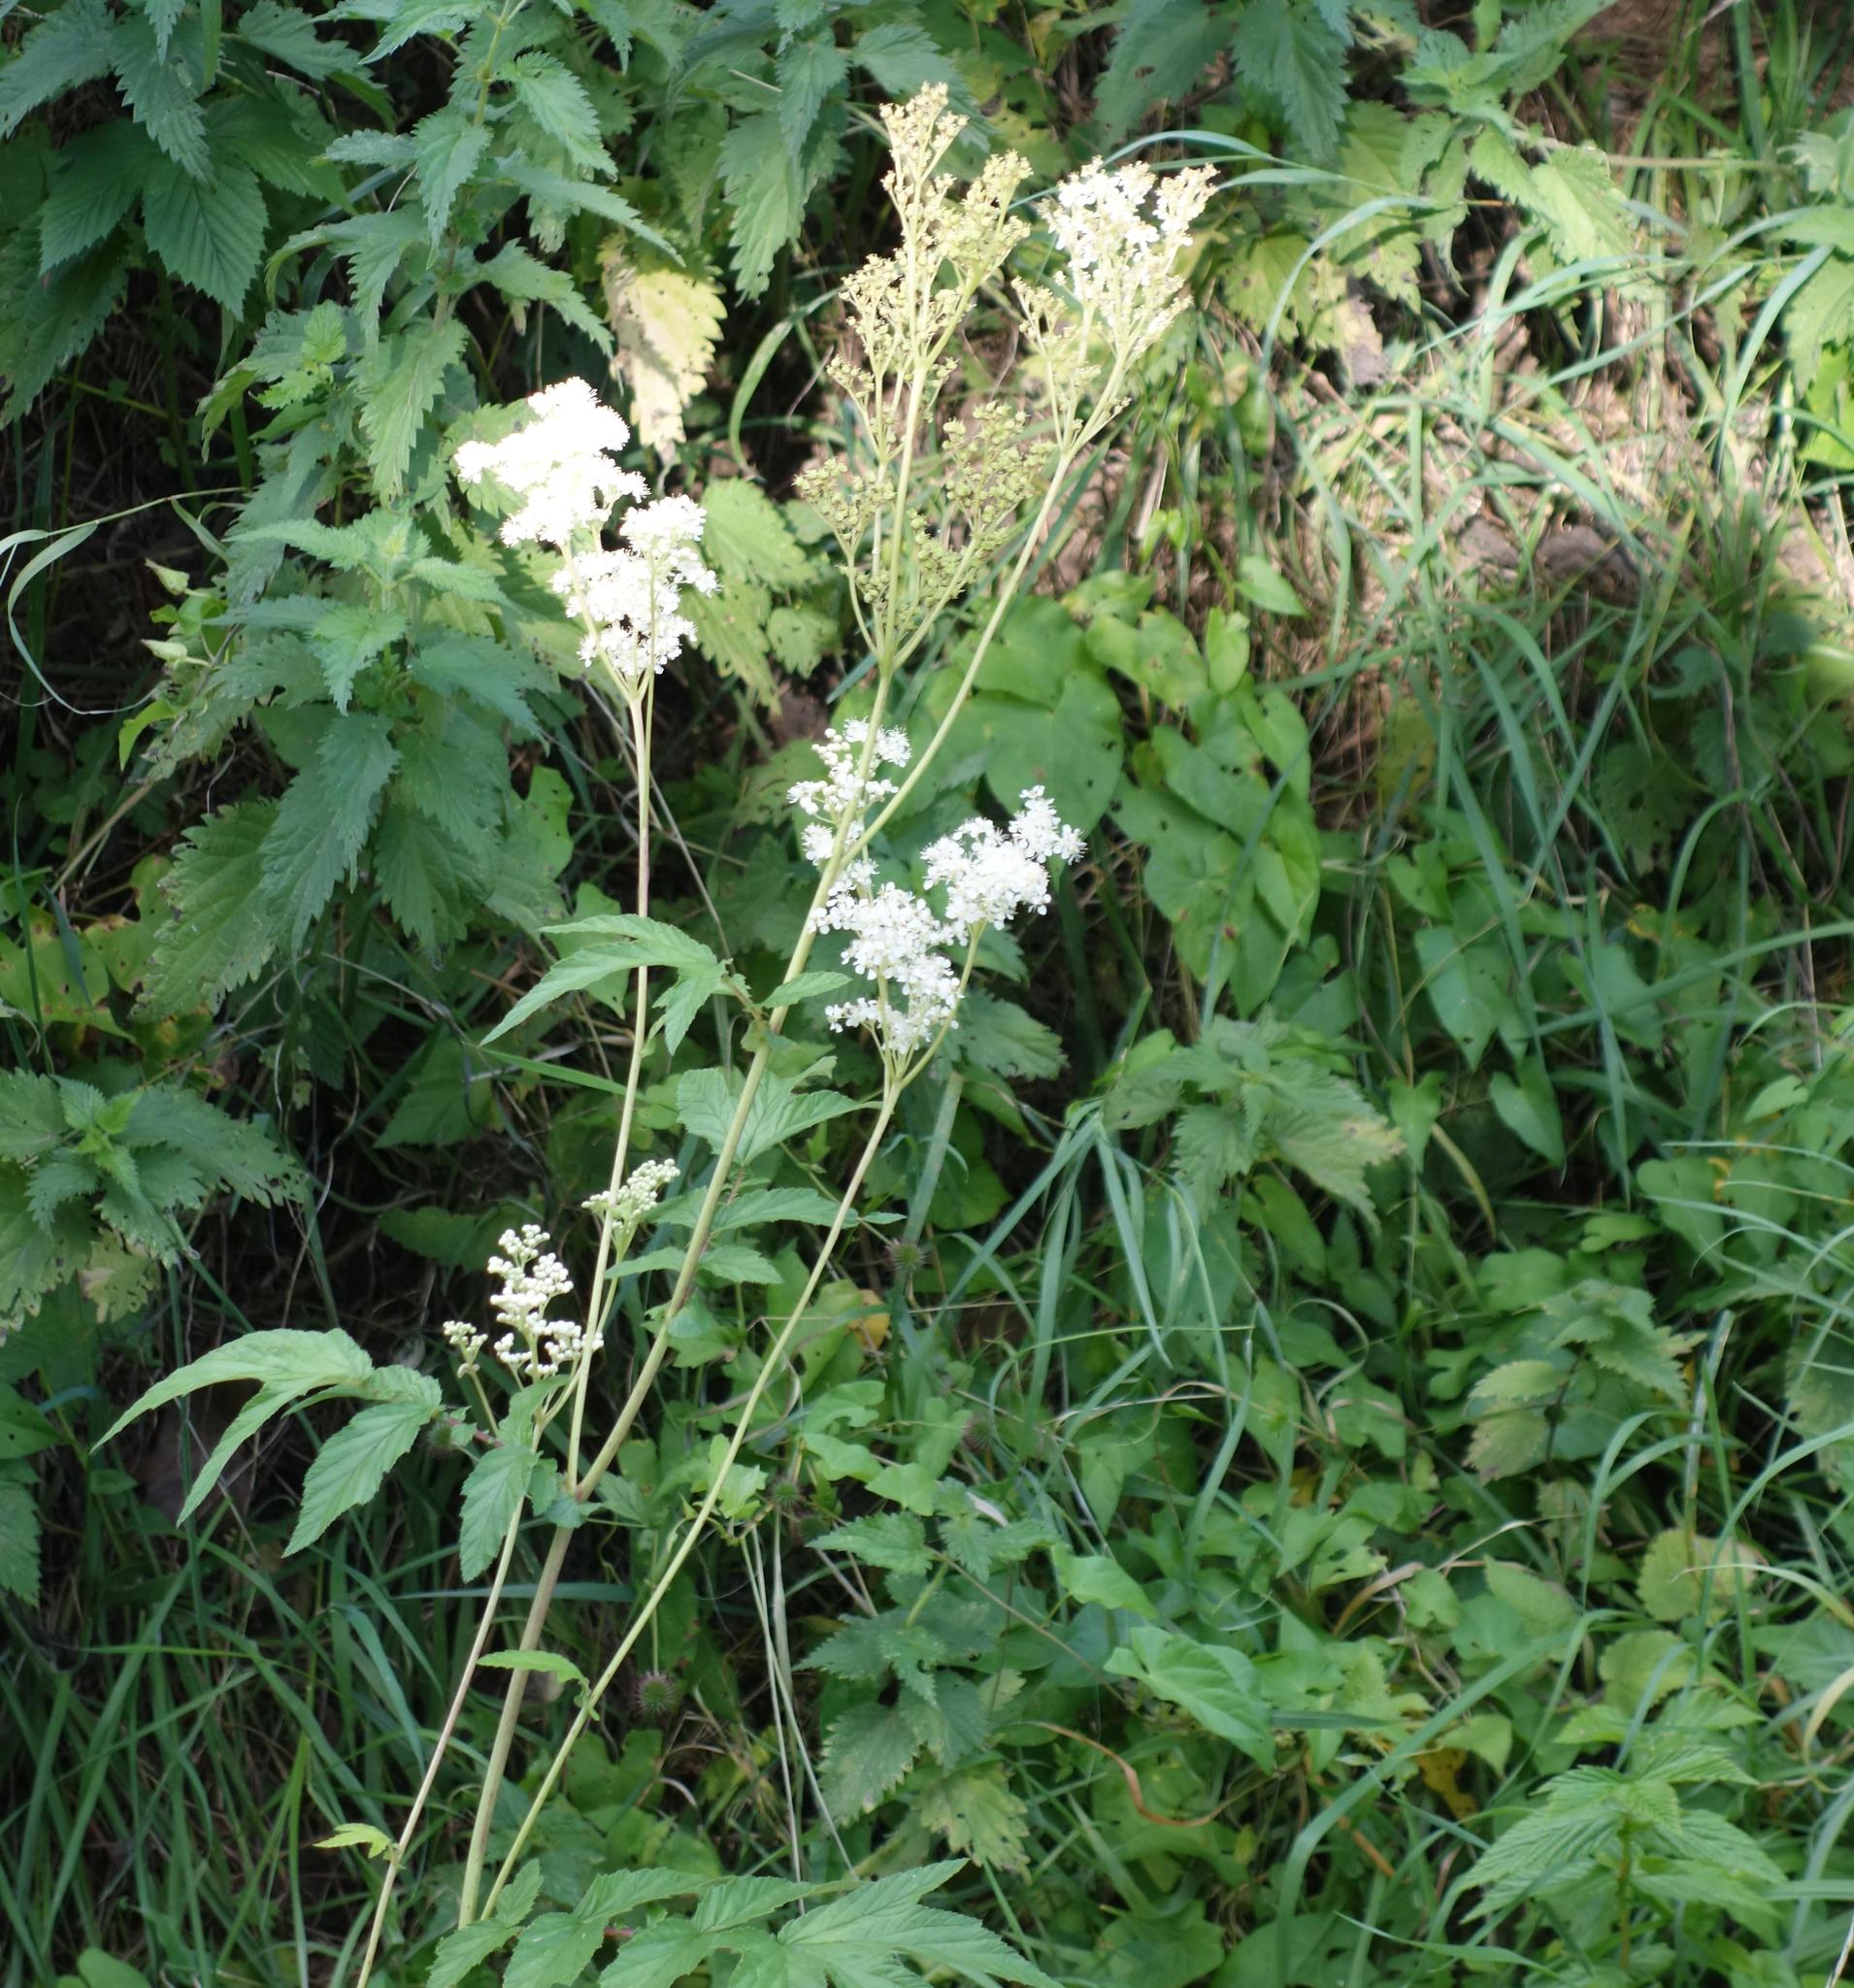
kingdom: Plantae
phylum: Tracheophyta
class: Magnoliopsida
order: Rosales
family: Rosaceae
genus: Filipendula
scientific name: Filipendula ulmaria
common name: Meadowsweet
